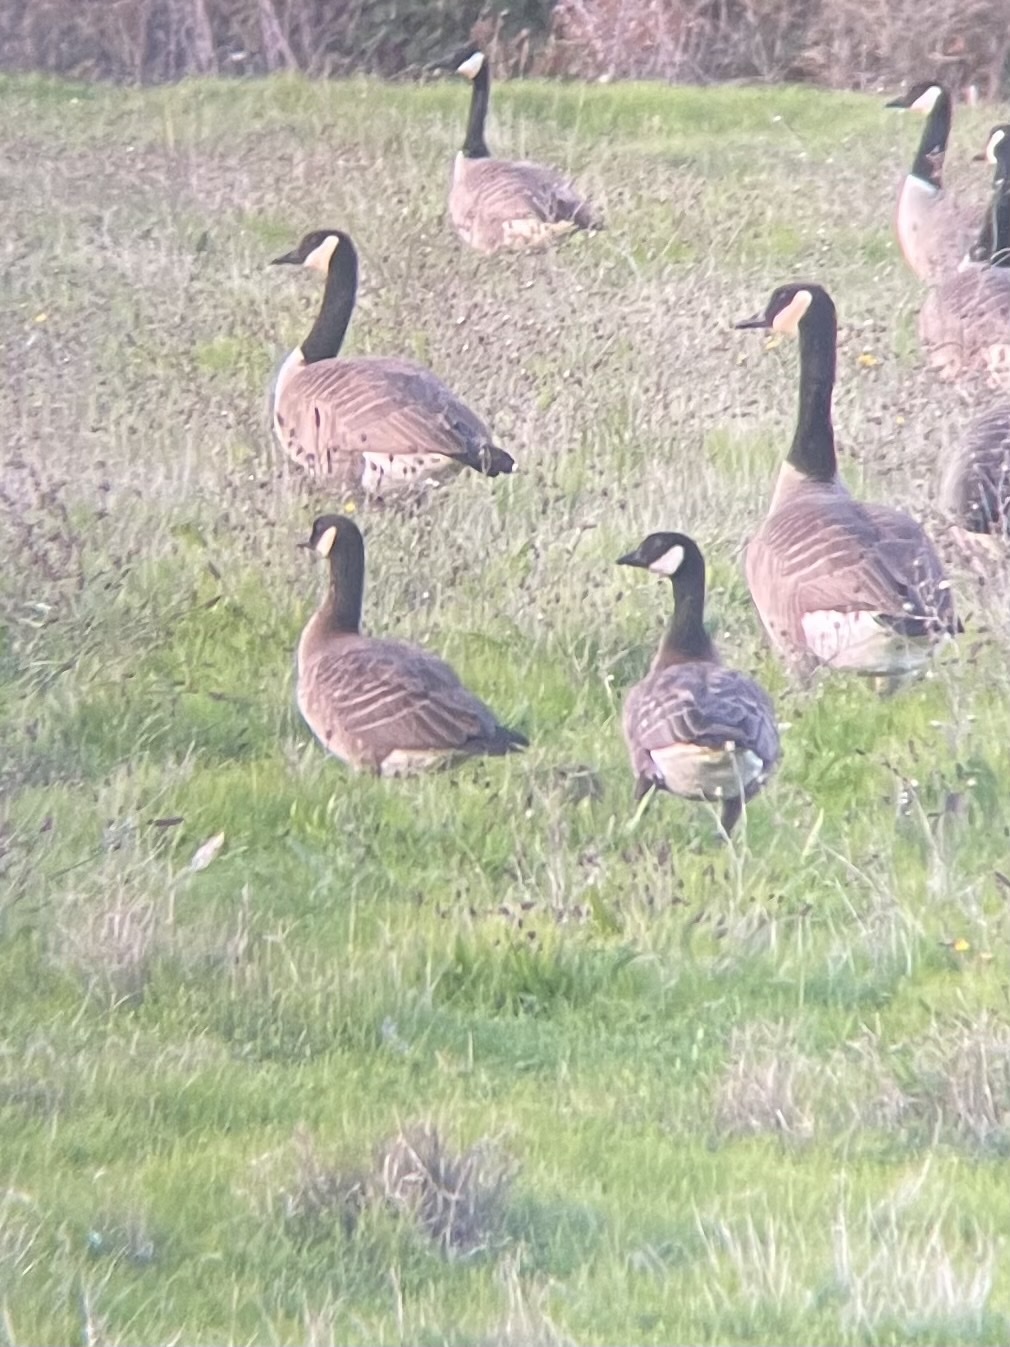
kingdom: Animalia
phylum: Chordata
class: Aves
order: Anseriformes
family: Anatidae
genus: Branta
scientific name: Branta hutchinsii
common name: Cackling goose
